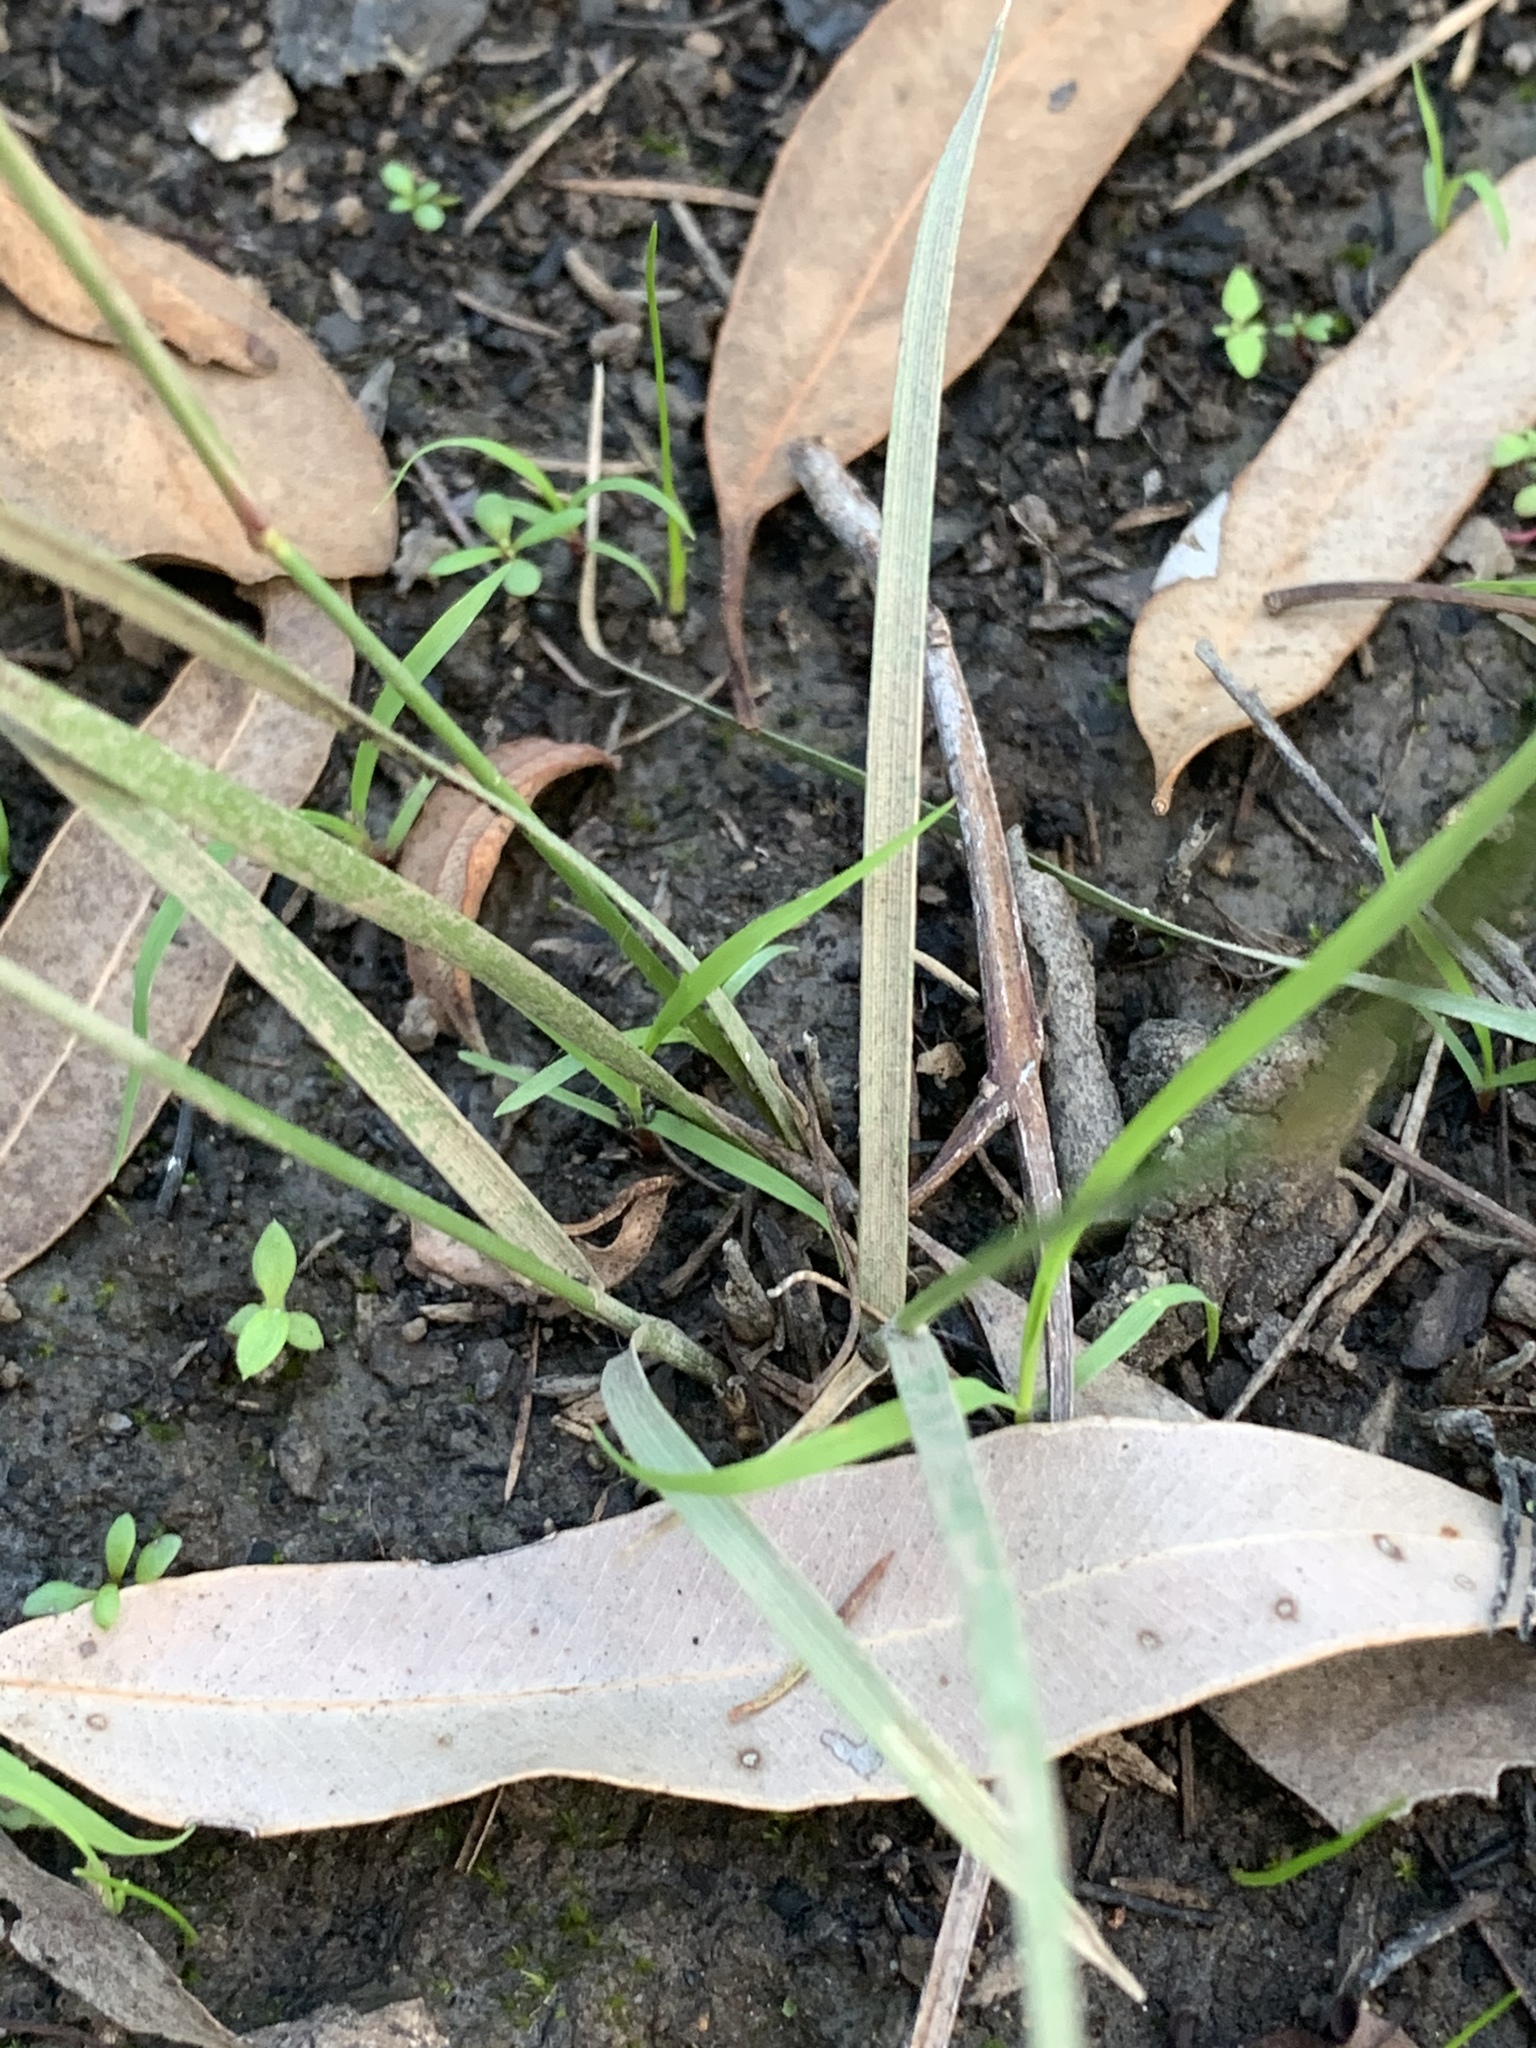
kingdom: Plantae
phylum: Tracheophyta
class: Liliopsida
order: Poales
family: Poaceae
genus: Aristida
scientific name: Aristida vagans
